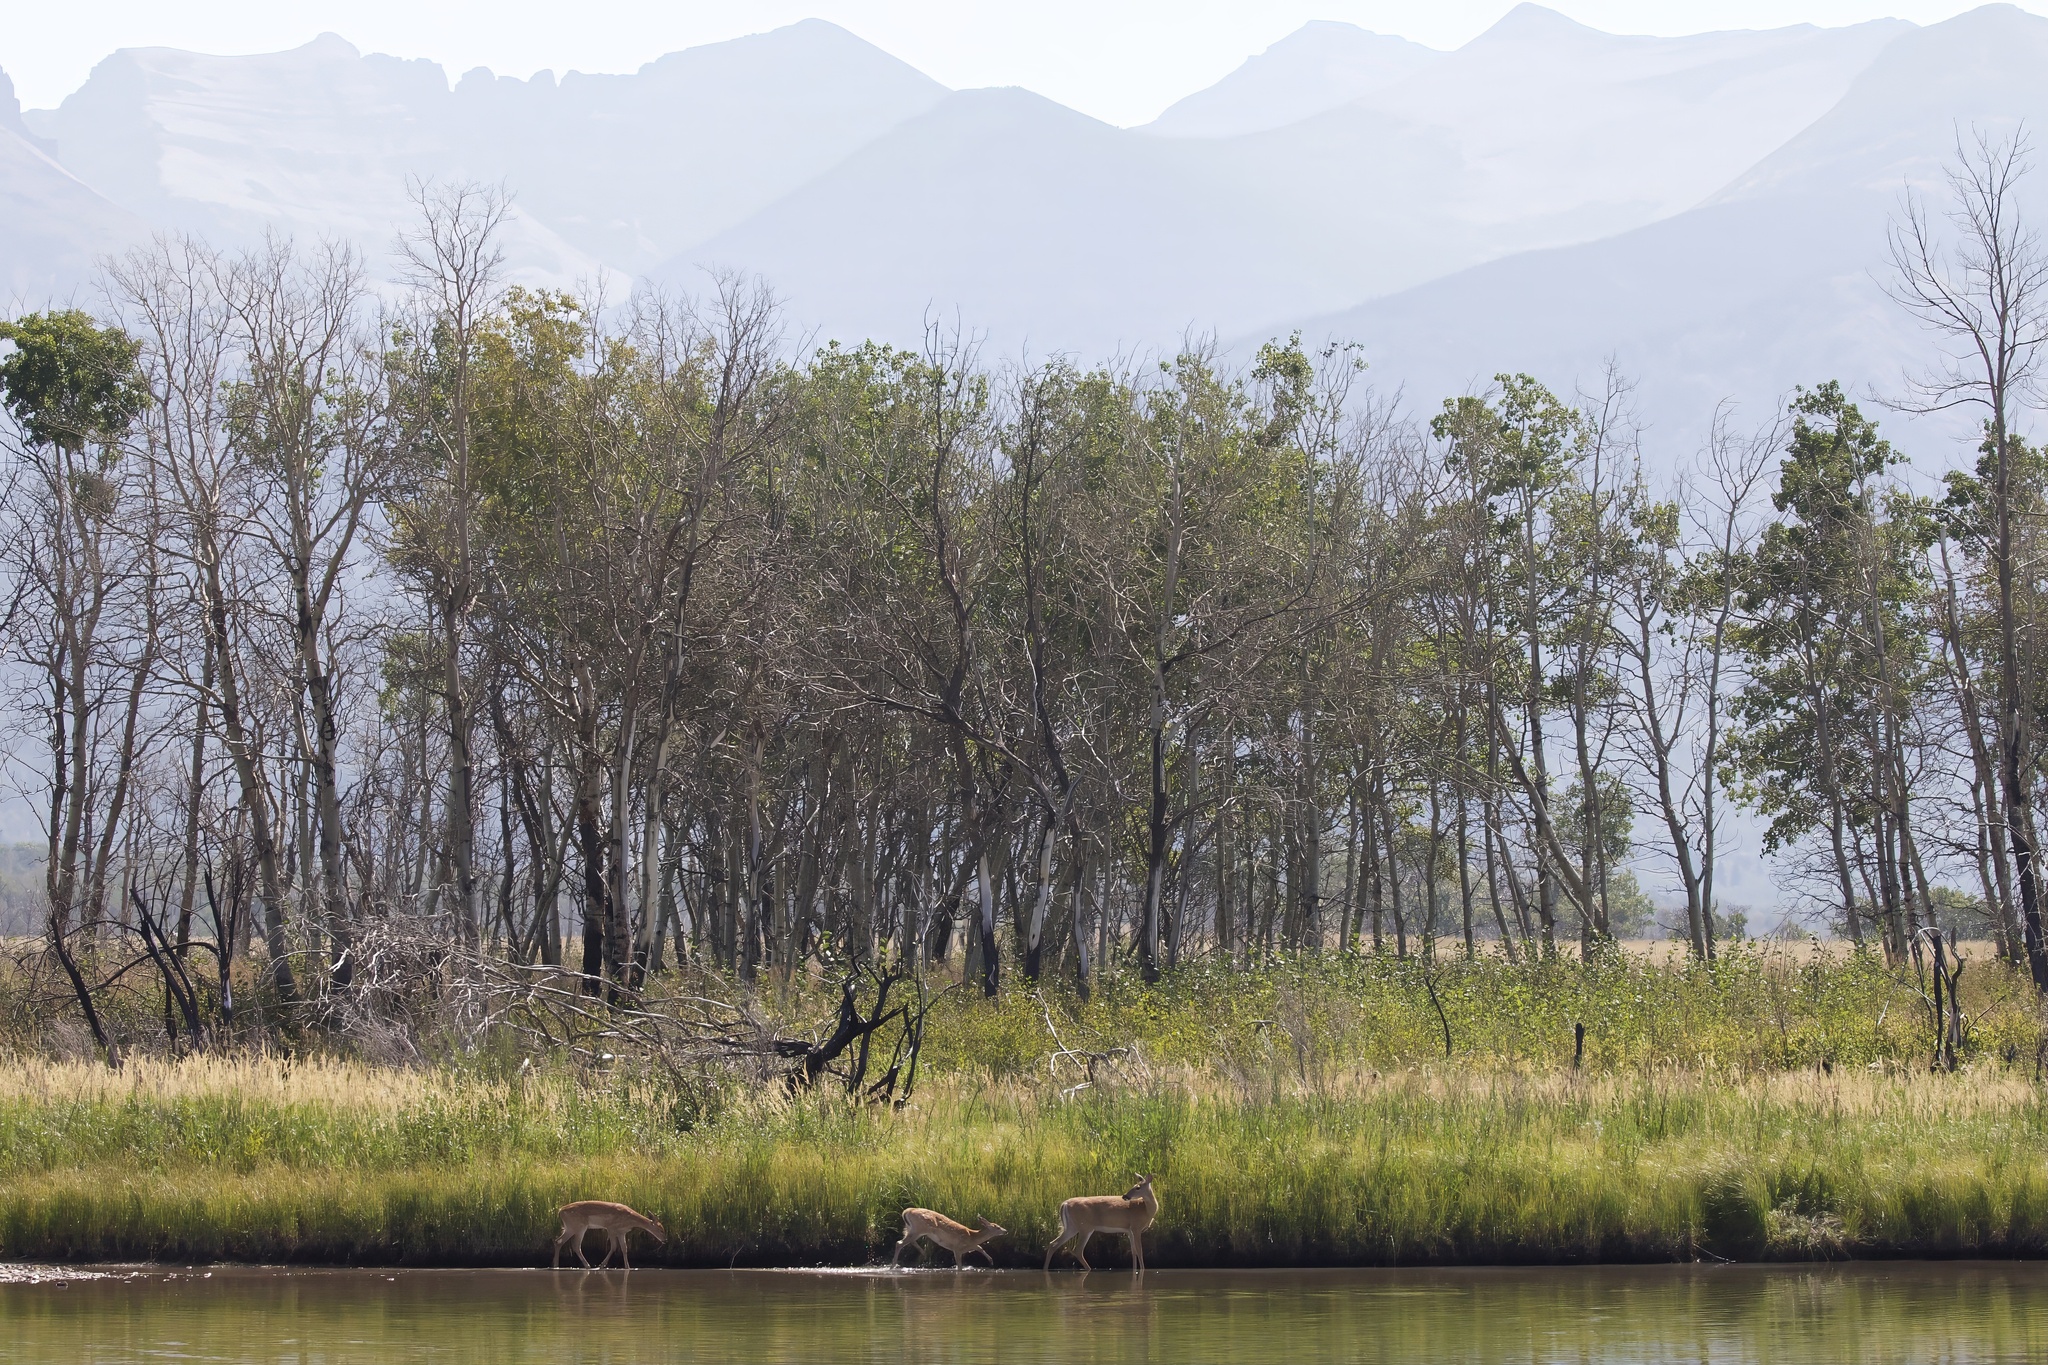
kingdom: Animalia
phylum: Chordata
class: Mammalia
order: Artiodactyla
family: Cervidae
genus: Odocoileus
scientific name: Odocoileus virginianus
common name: White-tailed deer
